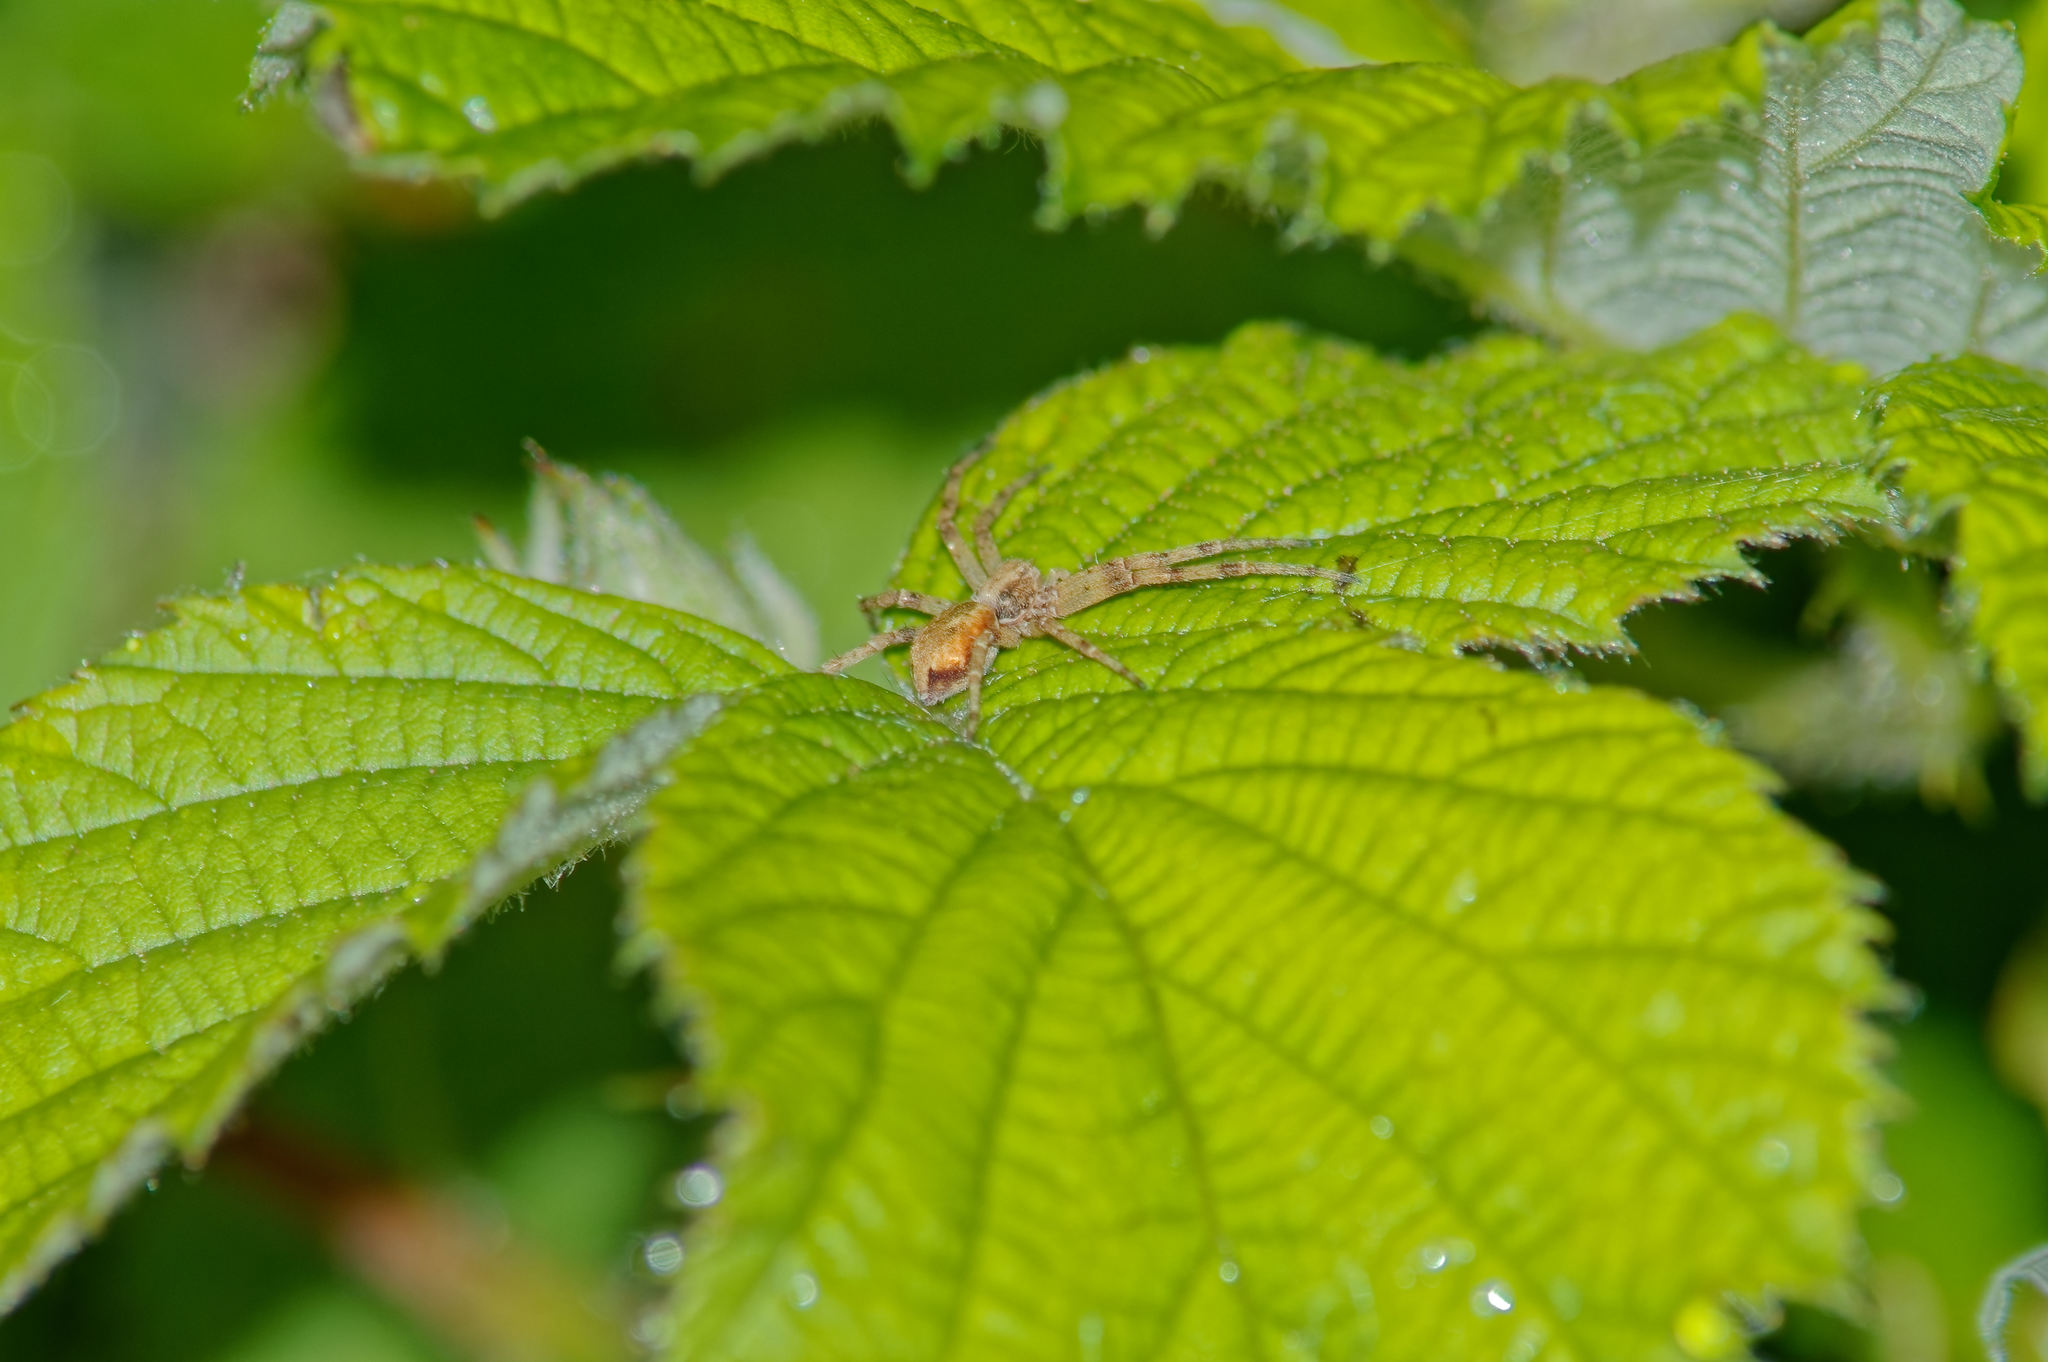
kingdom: Animalia
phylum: Arthropoda
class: Arachnida
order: Araneae
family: Philodromidae
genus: Philodromus
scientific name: Philodromus
